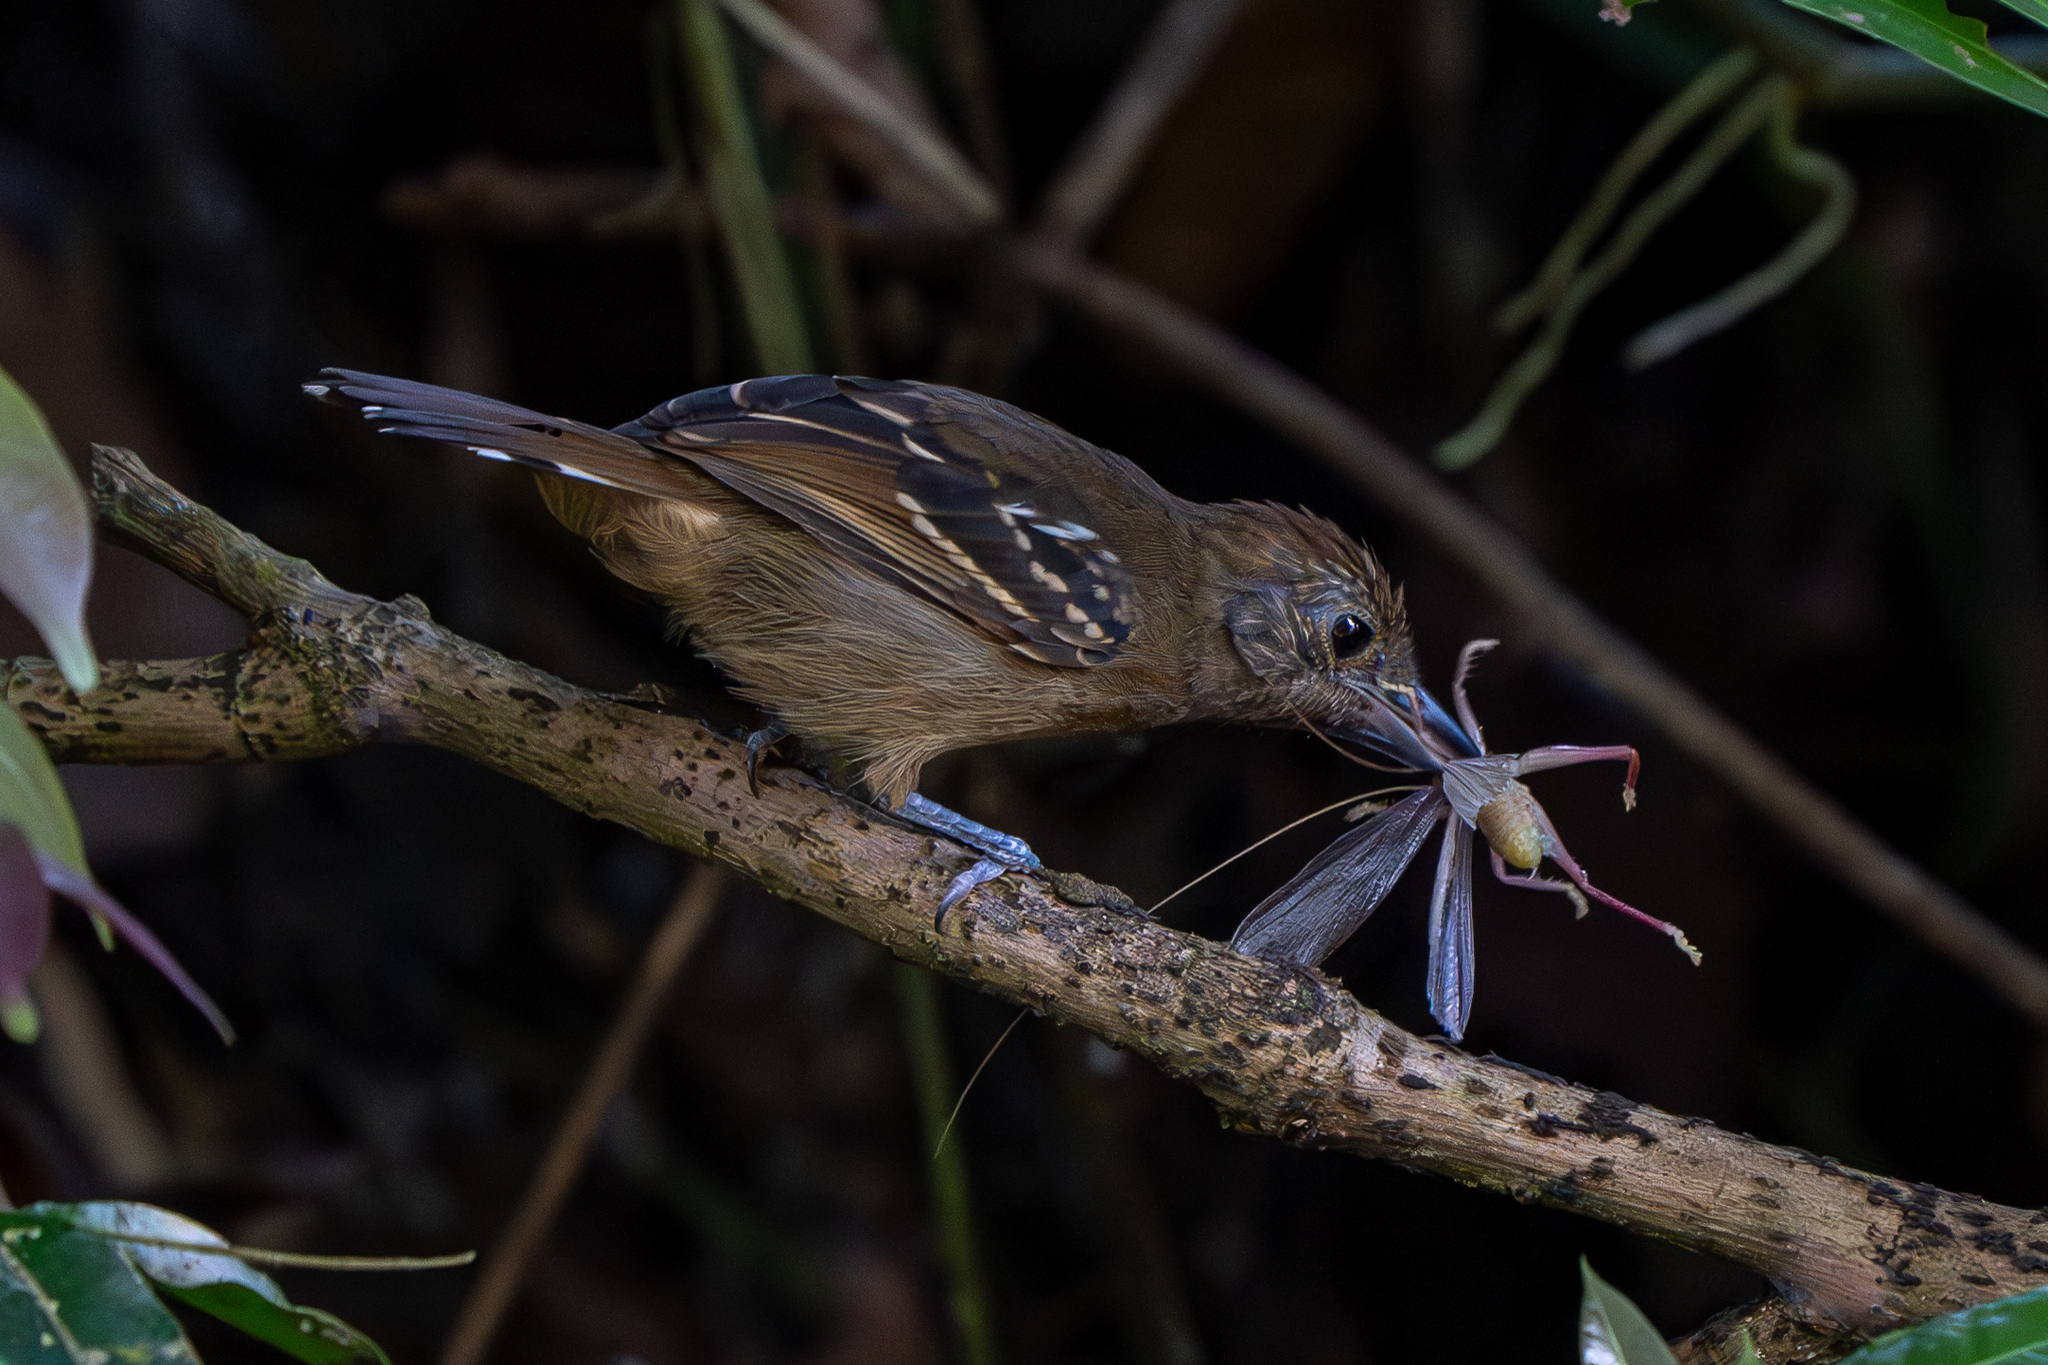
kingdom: Animalia
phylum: Chordata
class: Aves
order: Passeriformes
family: Thamnophilidae
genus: Thamnophilus
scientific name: Thamnophilus atrinucha
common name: Black-crowned antshrike
